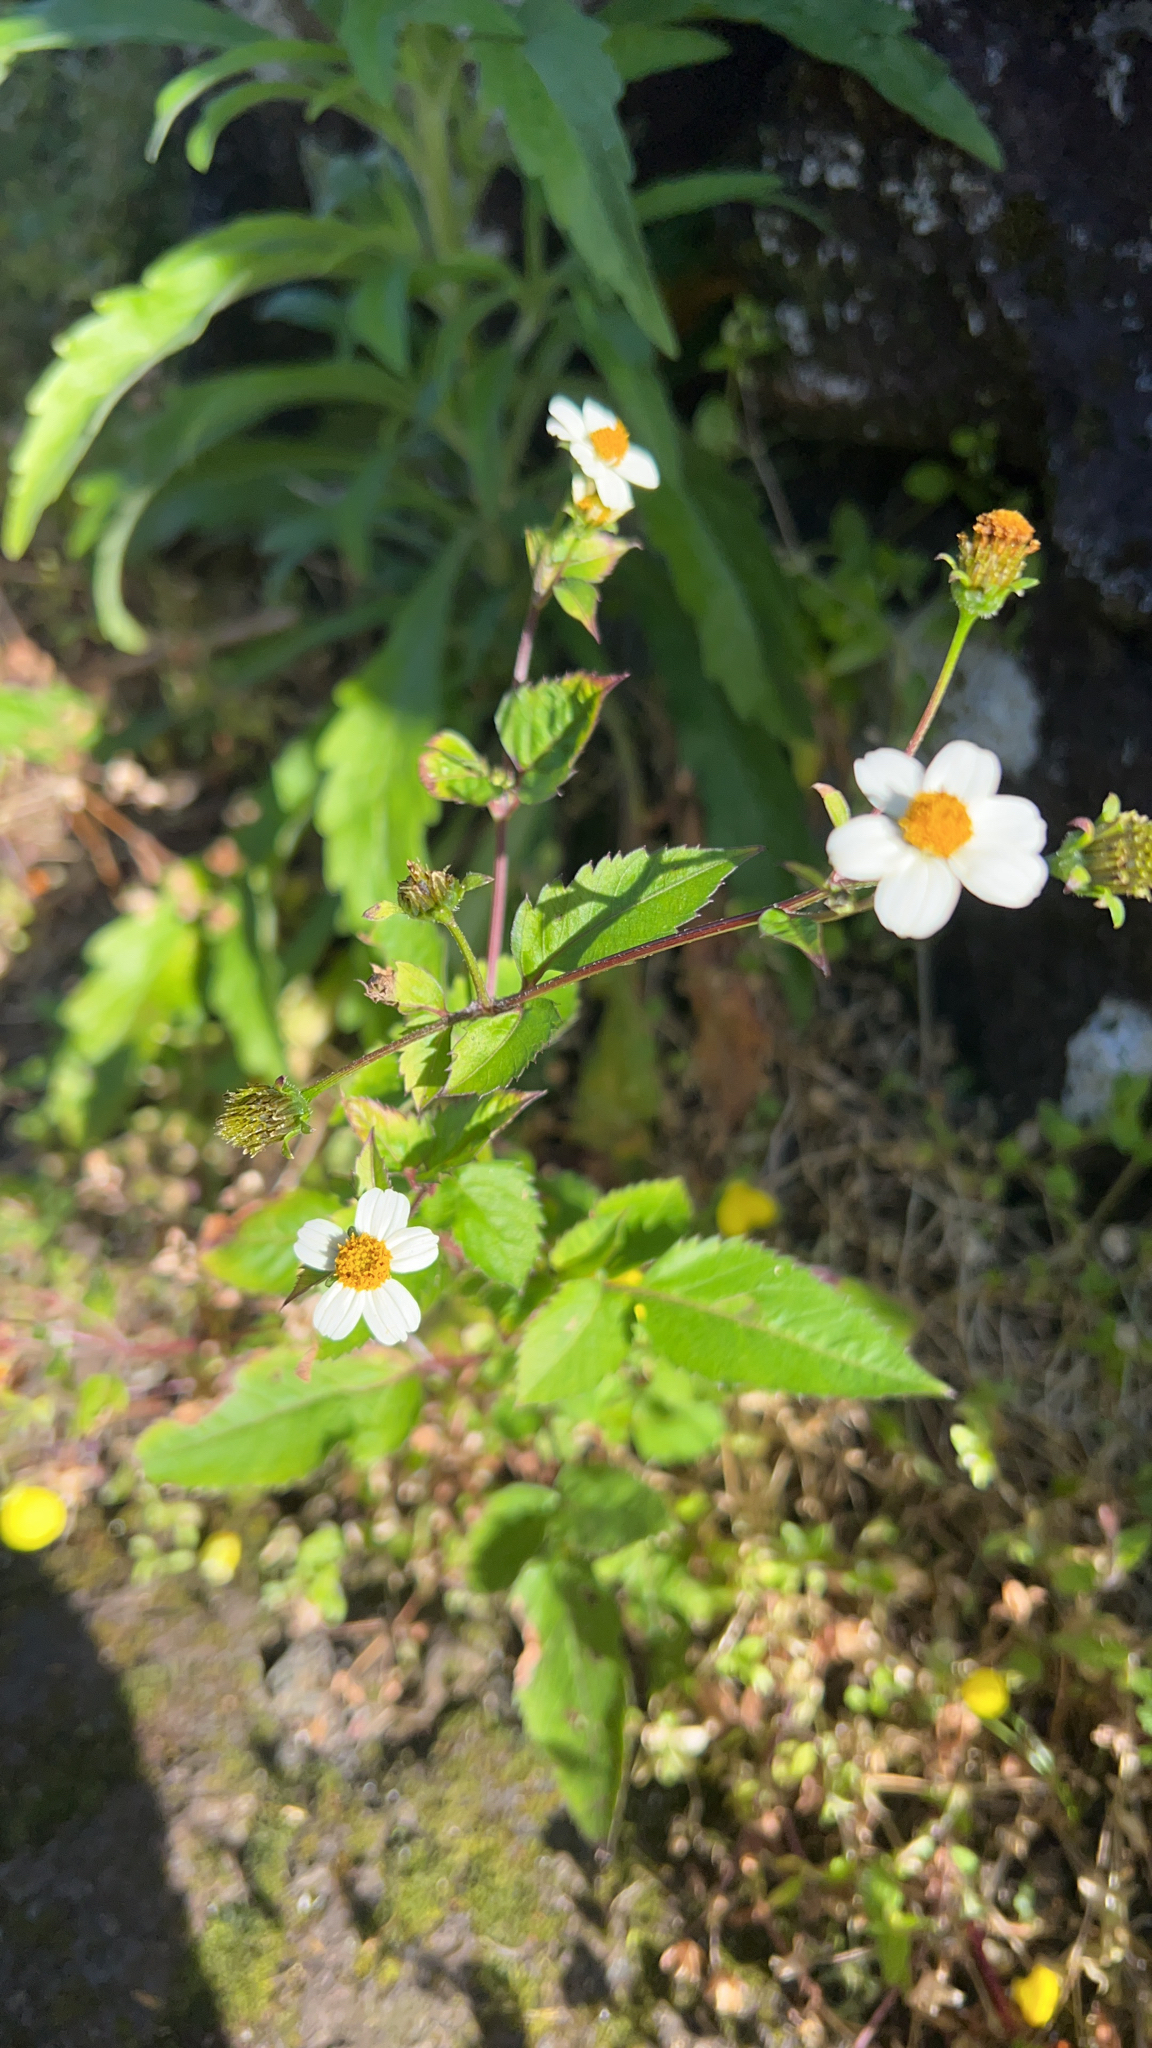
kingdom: Plantae
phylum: Tracheophyta
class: Magnoliopsida
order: Asterales
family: Asteraceae
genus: Bidens
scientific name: Bidens pilosa
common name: Black-jack
